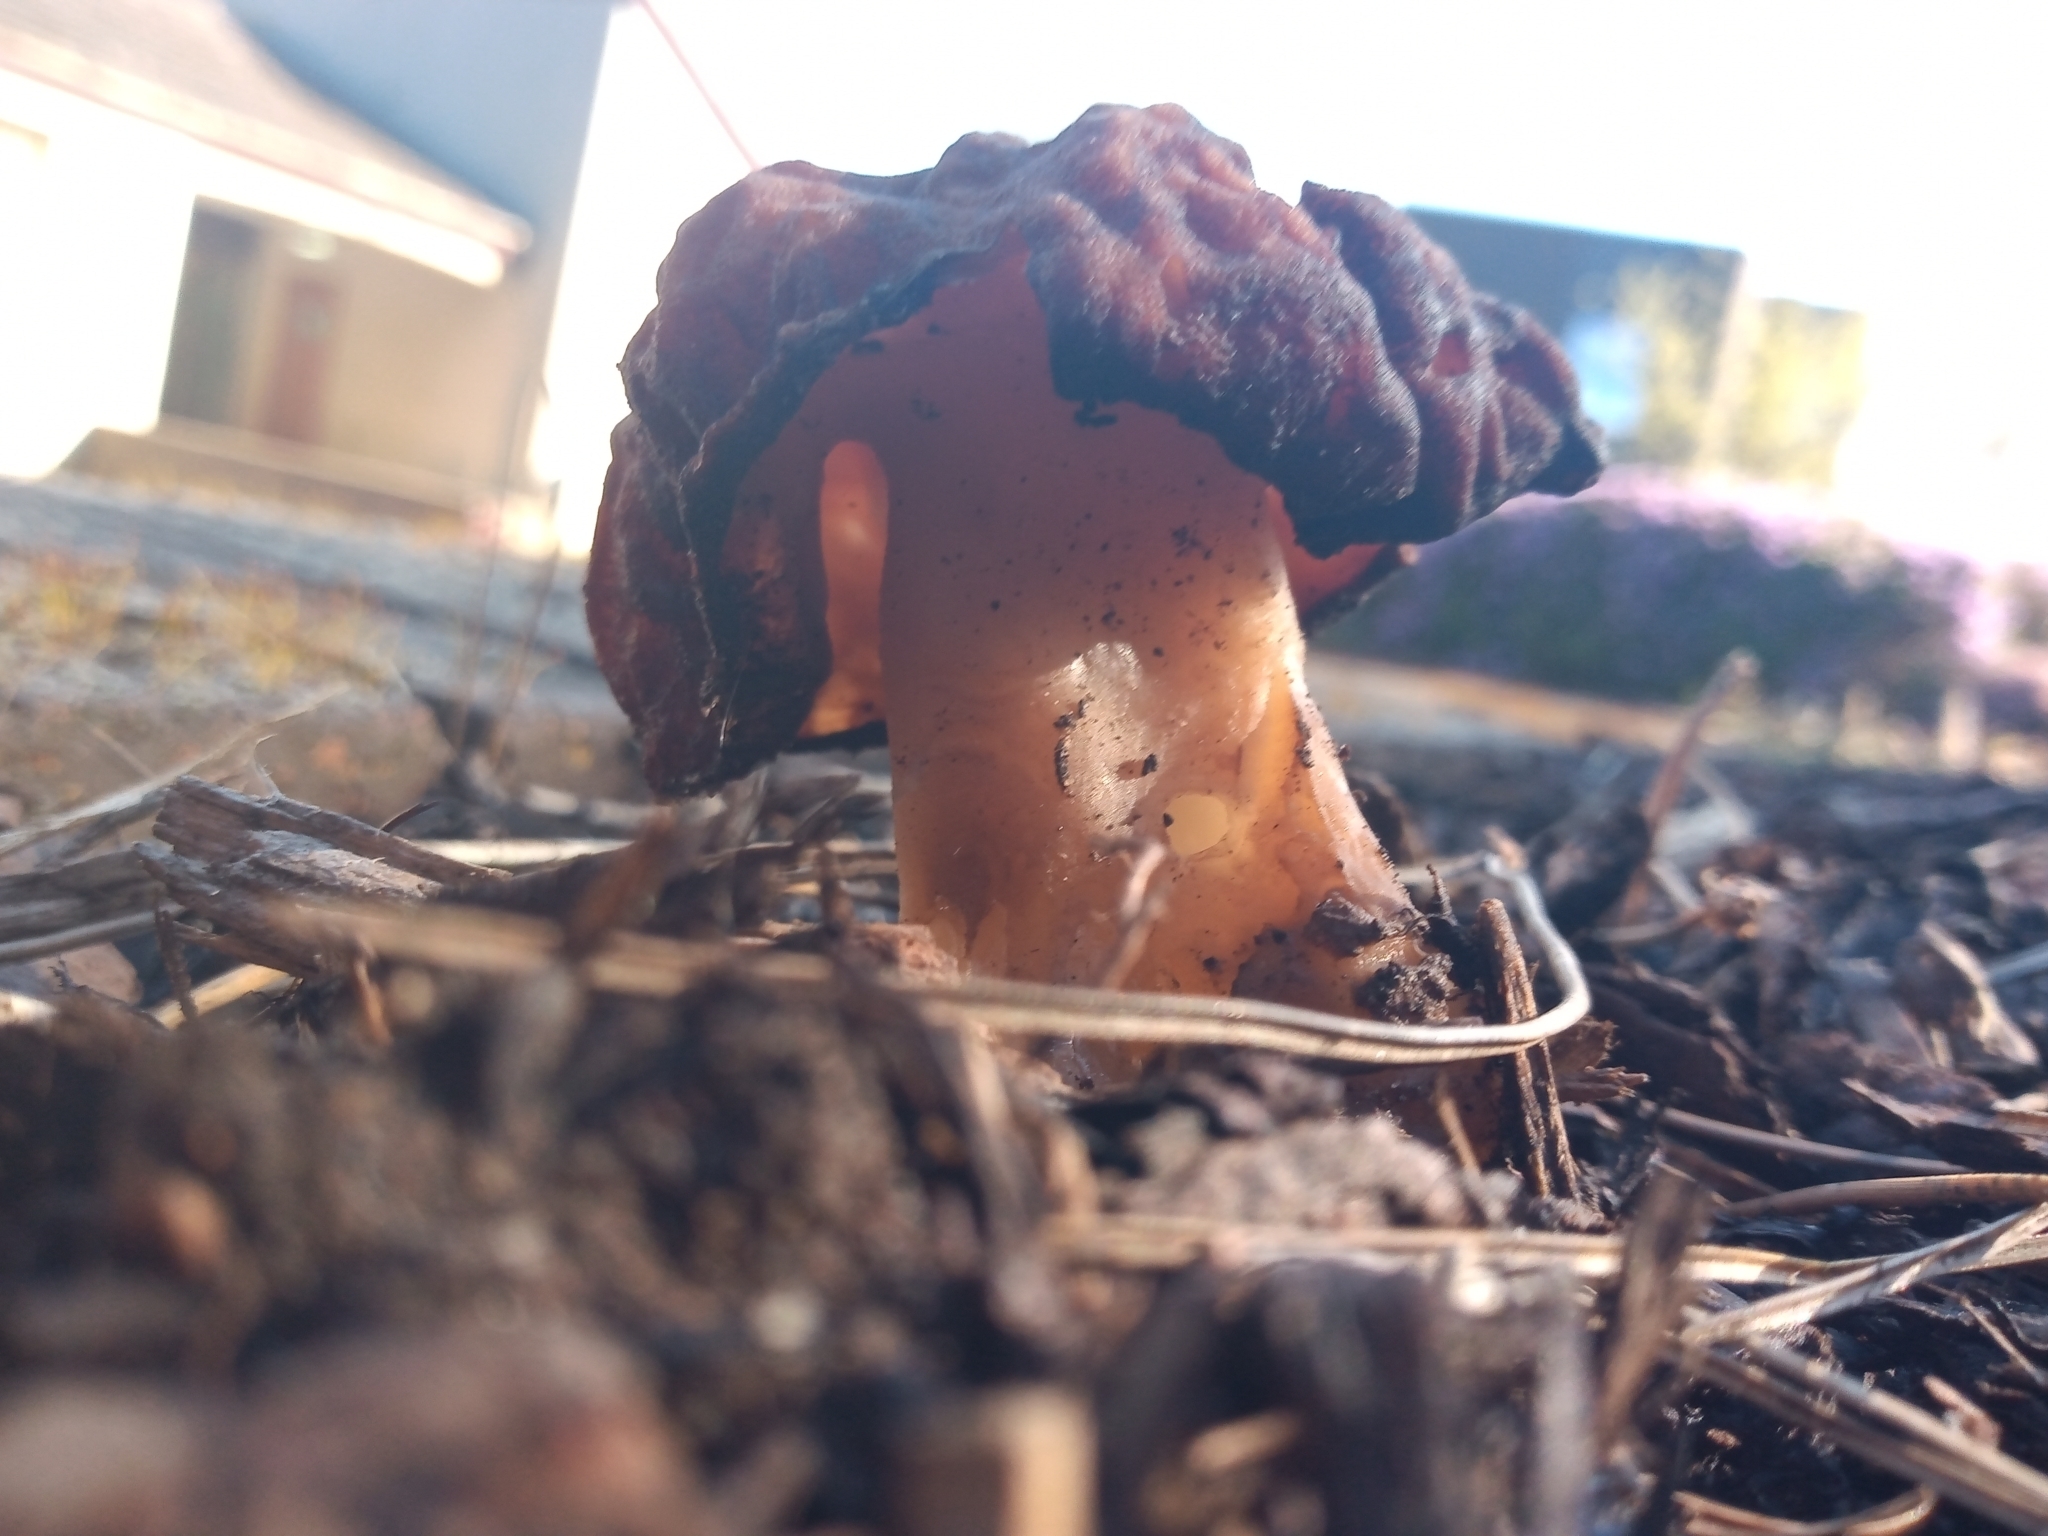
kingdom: Fungi
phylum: Ascomycota
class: Pezizomycetes
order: Pezizales
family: Discinaceae
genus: Gyromitra
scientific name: Gyromitra esculenta
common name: False morel
